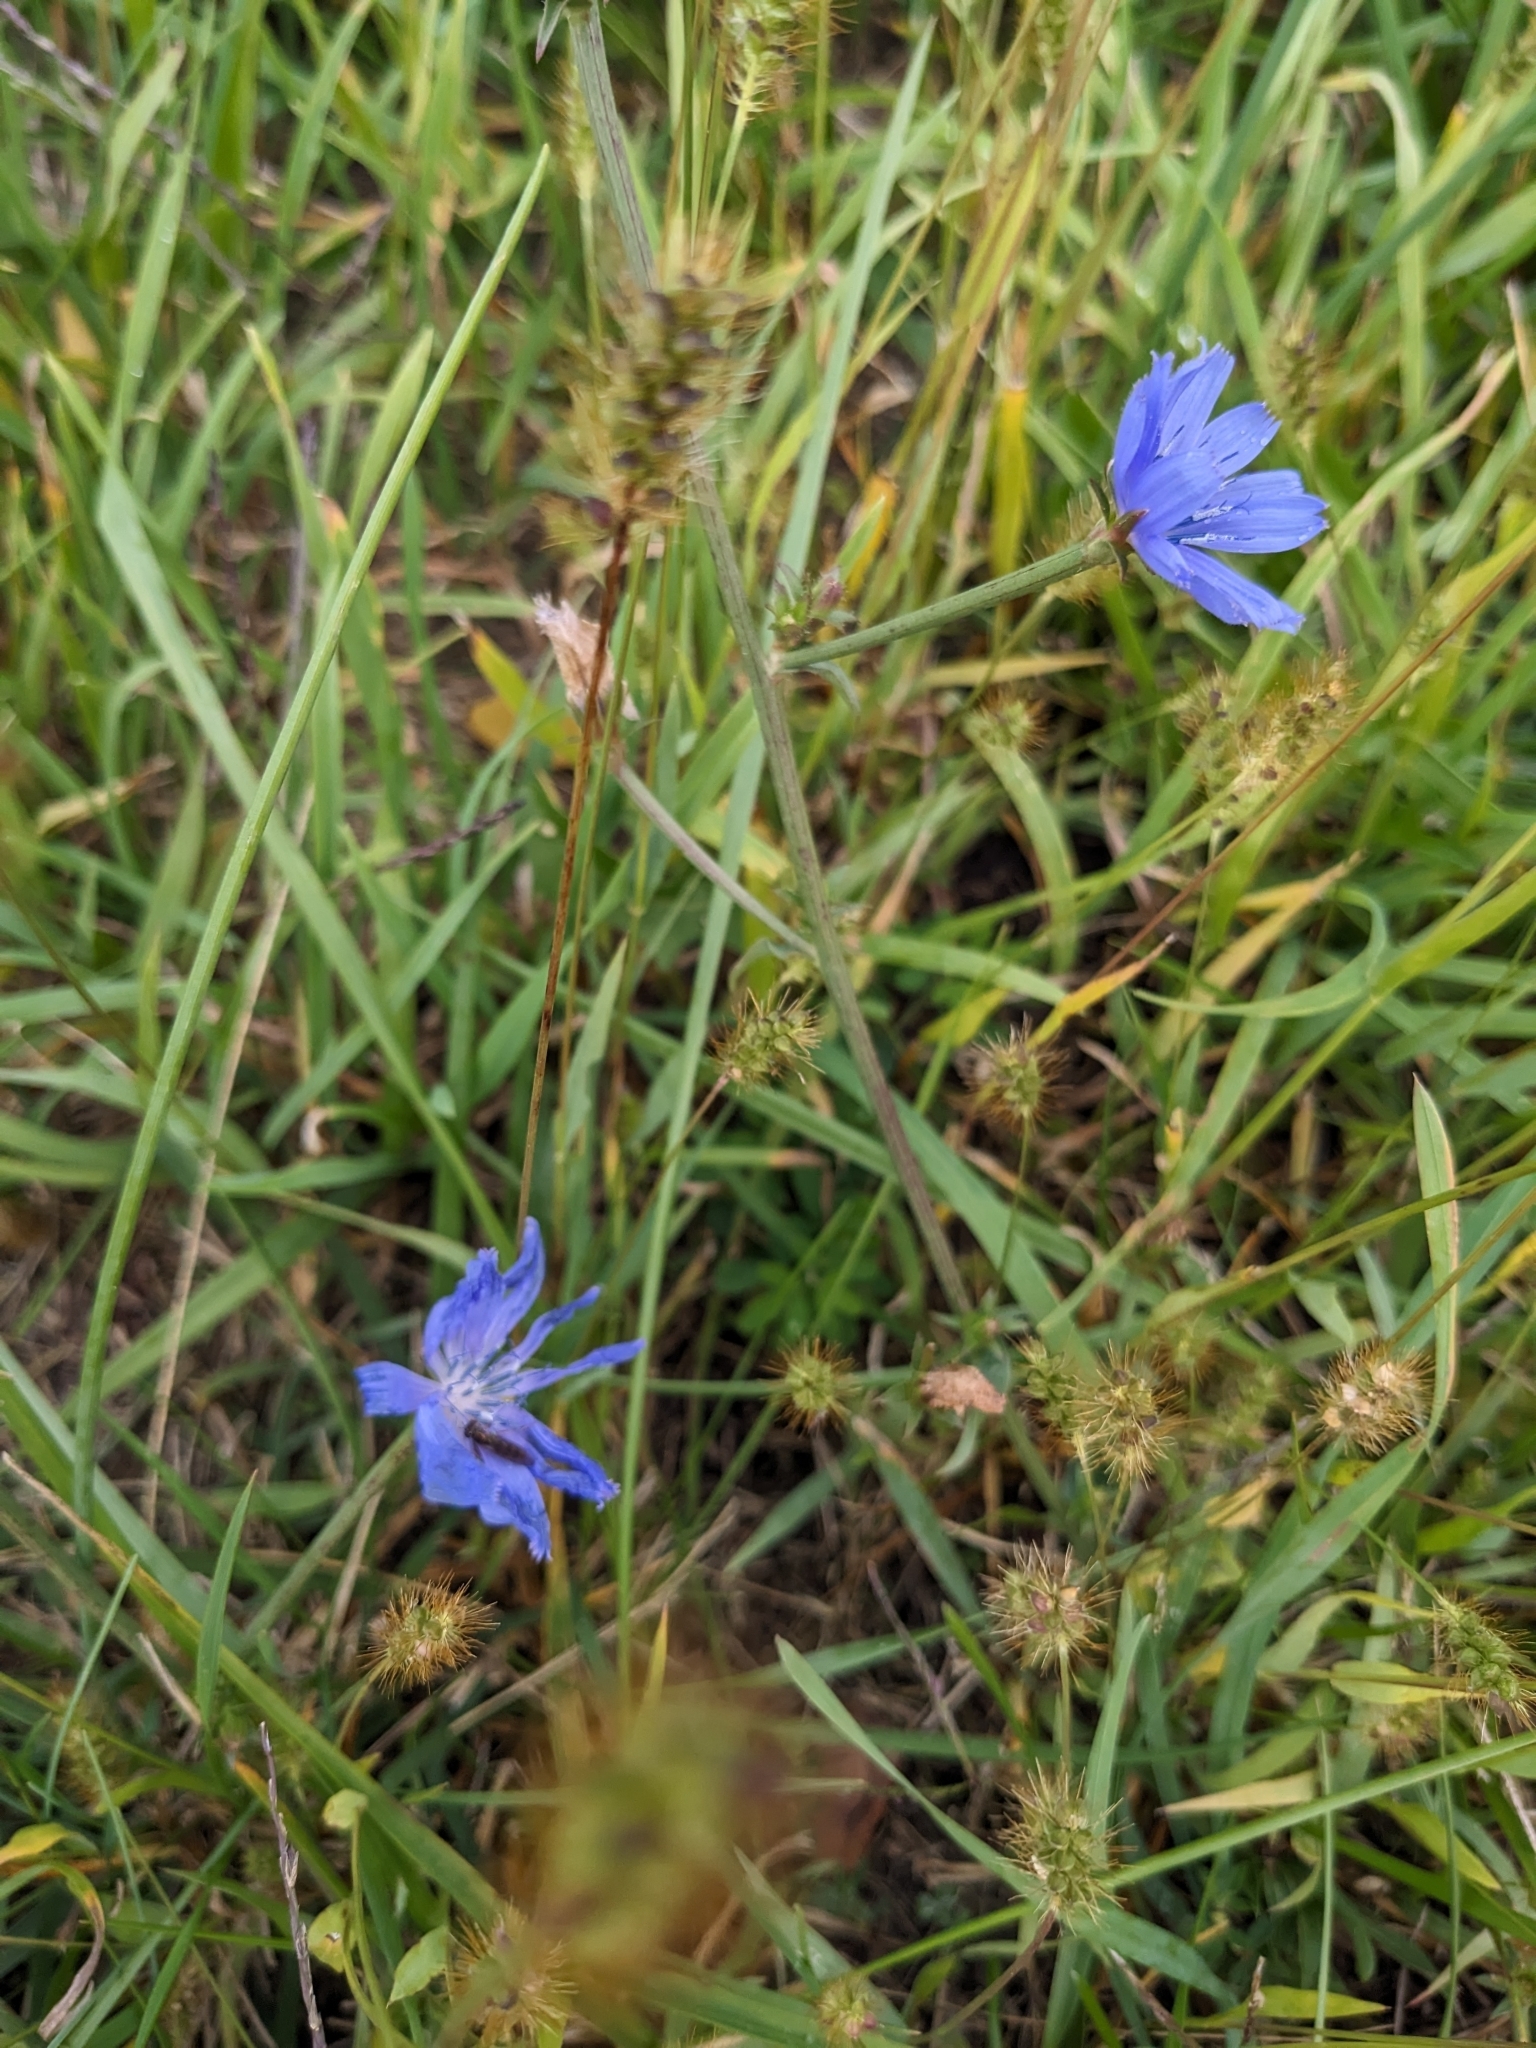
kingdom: Plantae
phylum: Tracheophyta
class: Magnoliopsida
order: Asterales
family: Asteraceae
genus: Cichorium
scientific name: Cichorium intybus
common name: Chicory
